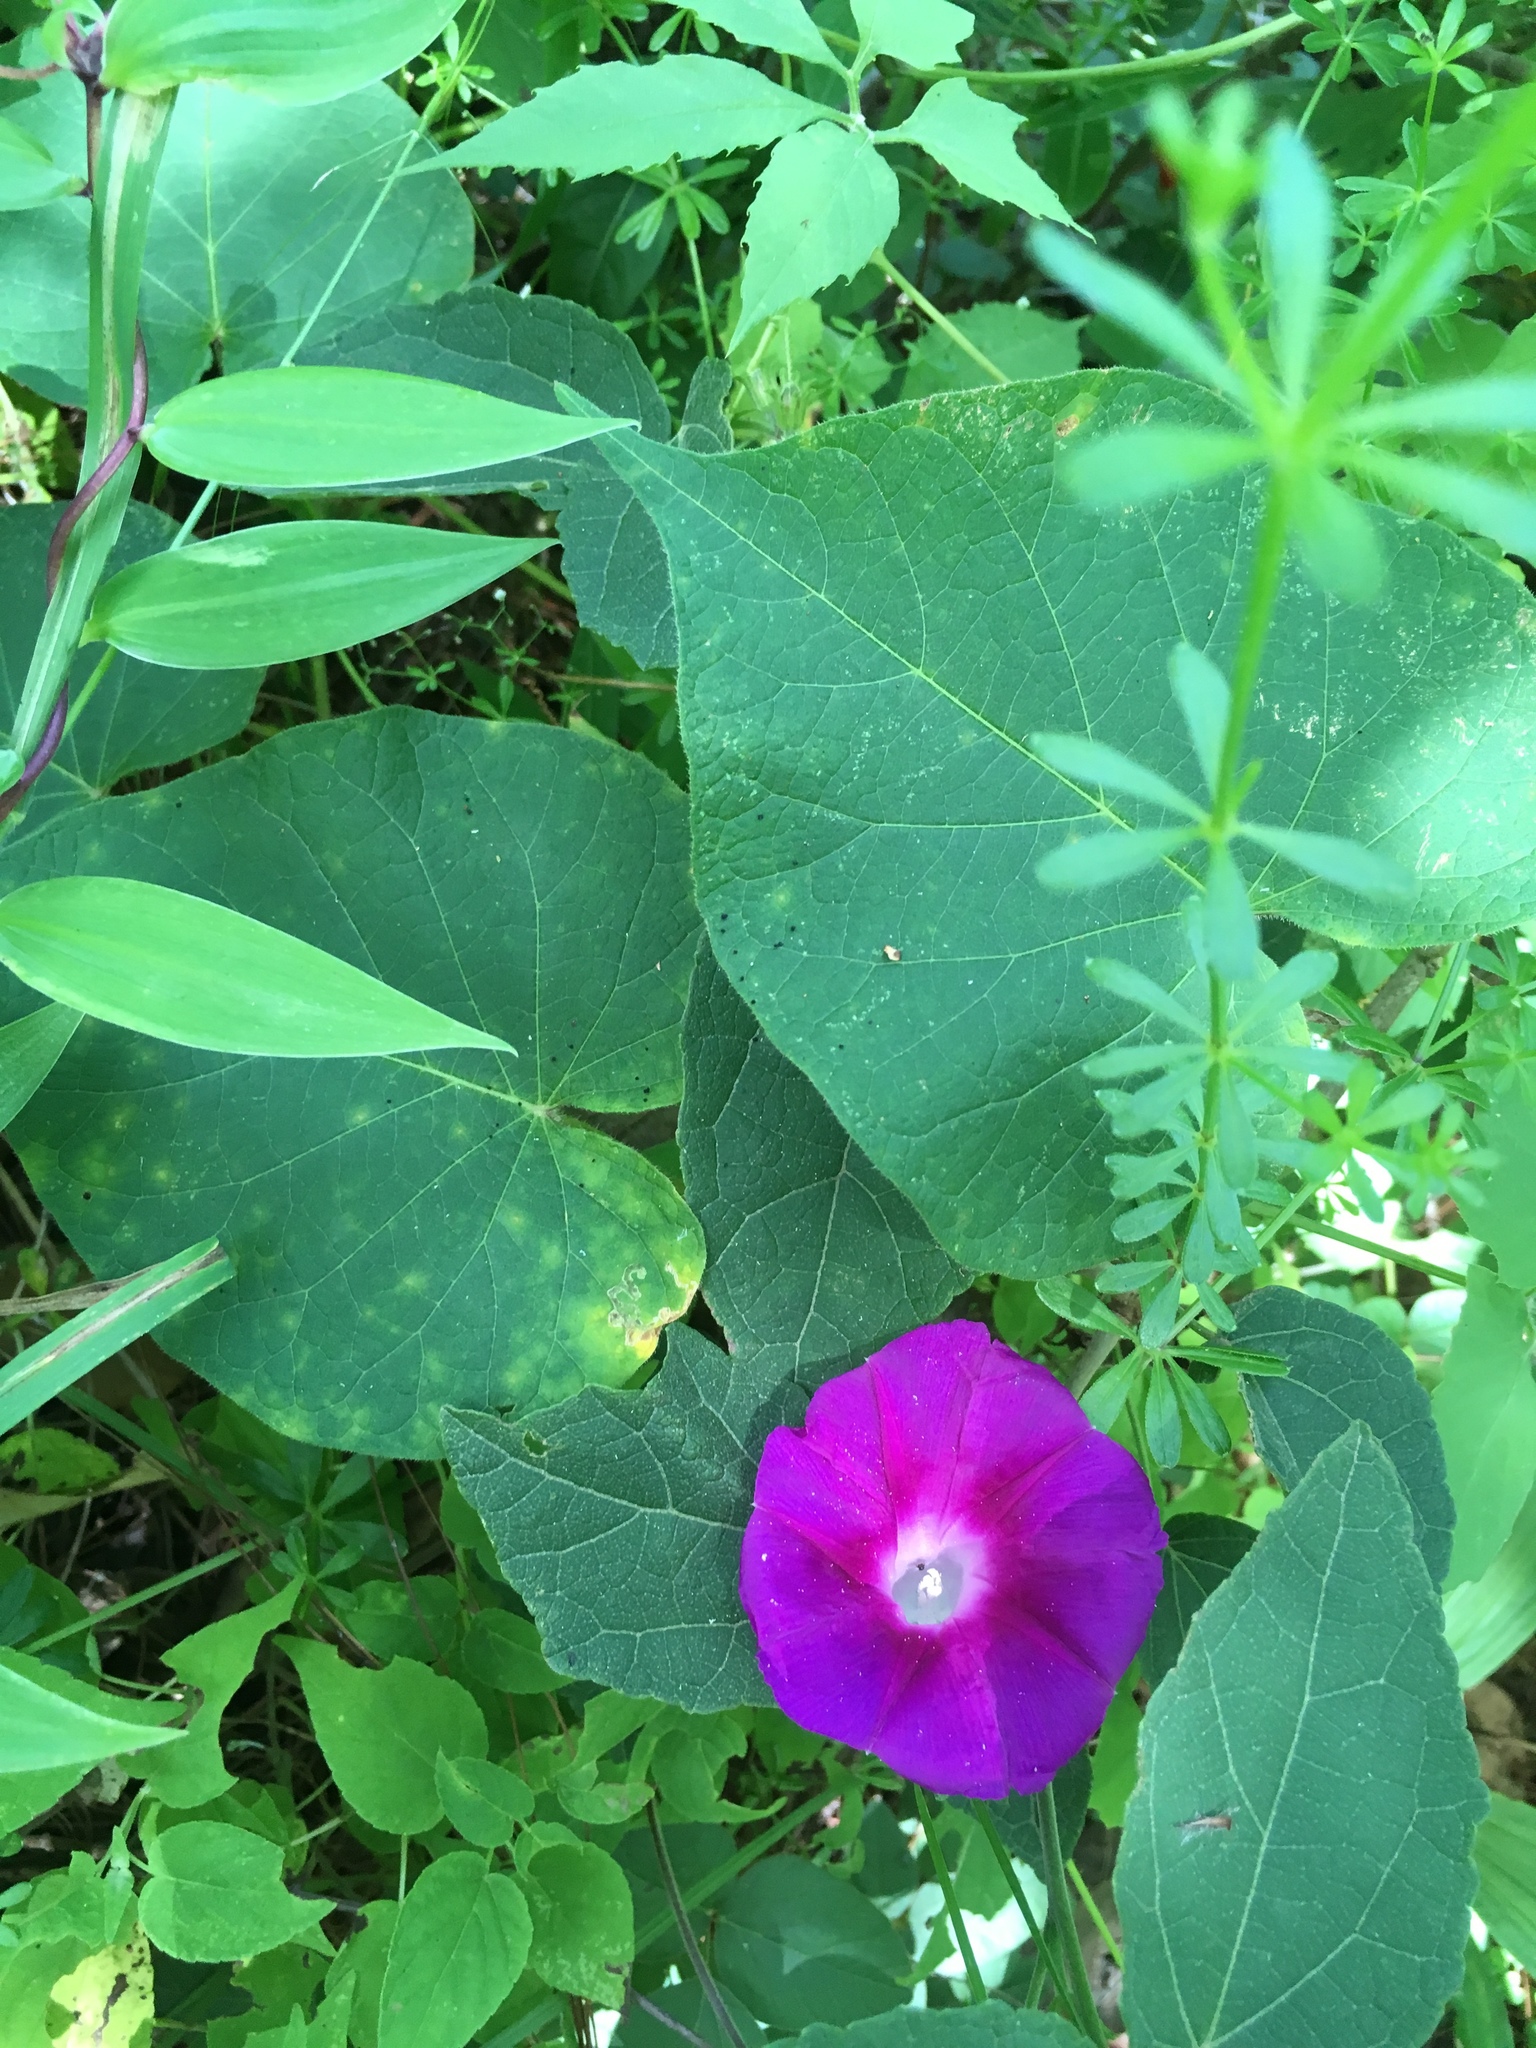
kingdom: Plantae
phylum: Tracheophyta
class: Magnoliopsida
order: Solanales
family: Convolvulaceae
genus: Ipomoea
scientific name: Ipomoea orizabensis
